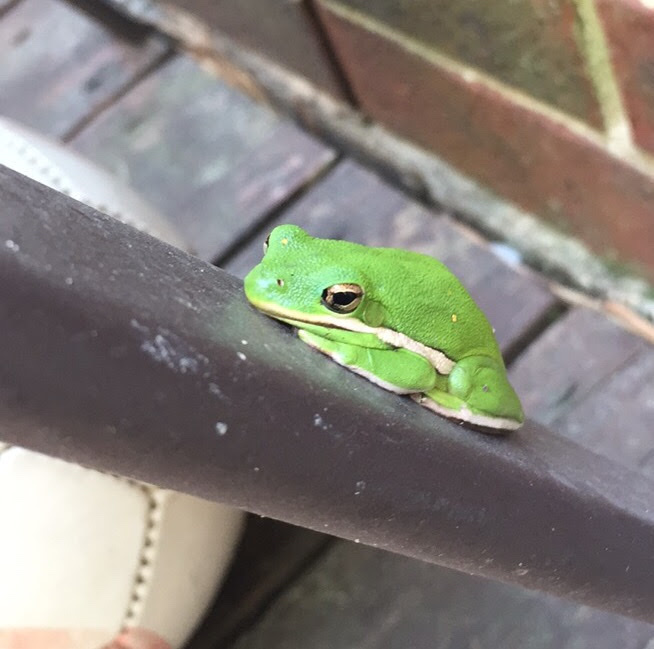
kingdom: Animalia
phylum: Chordata
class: Amphibia
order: Anura
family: Hylidae
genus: Dryophytes
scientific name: Dryophytes cinereus
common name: Green treefrog
